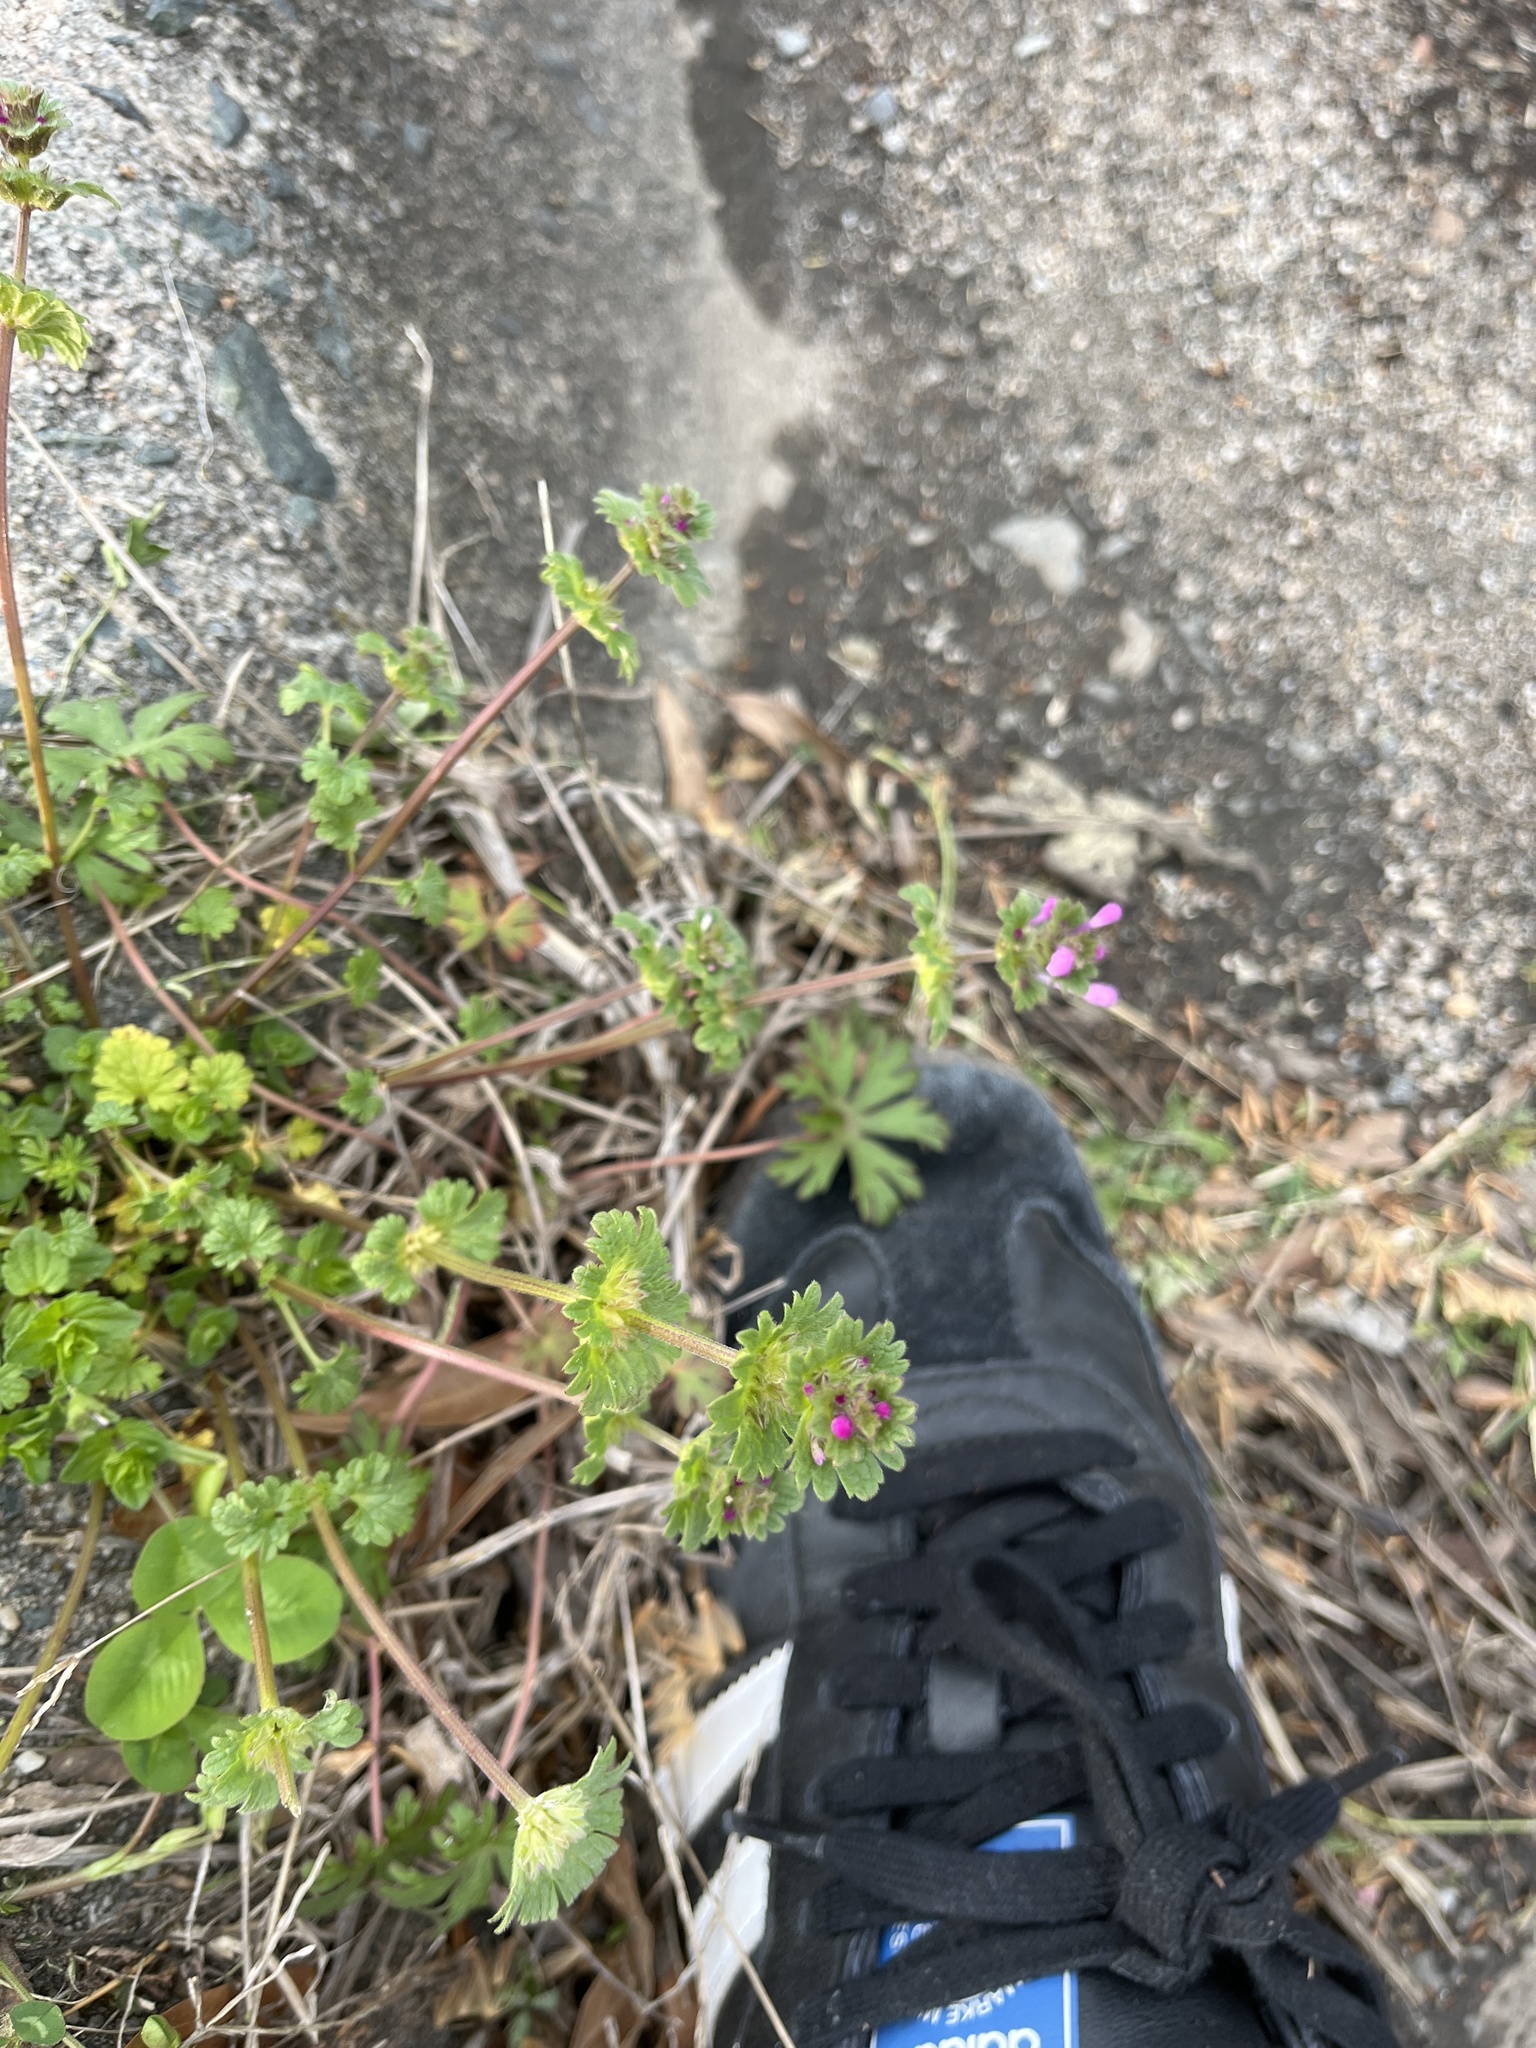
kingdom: Plantae
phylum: Tracheophyta
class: Magnoliopsida
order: Lamiales
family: Lamiaceae
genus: Lamium
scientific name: Lamium amplexicaule
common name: Henbit dead-nettle
